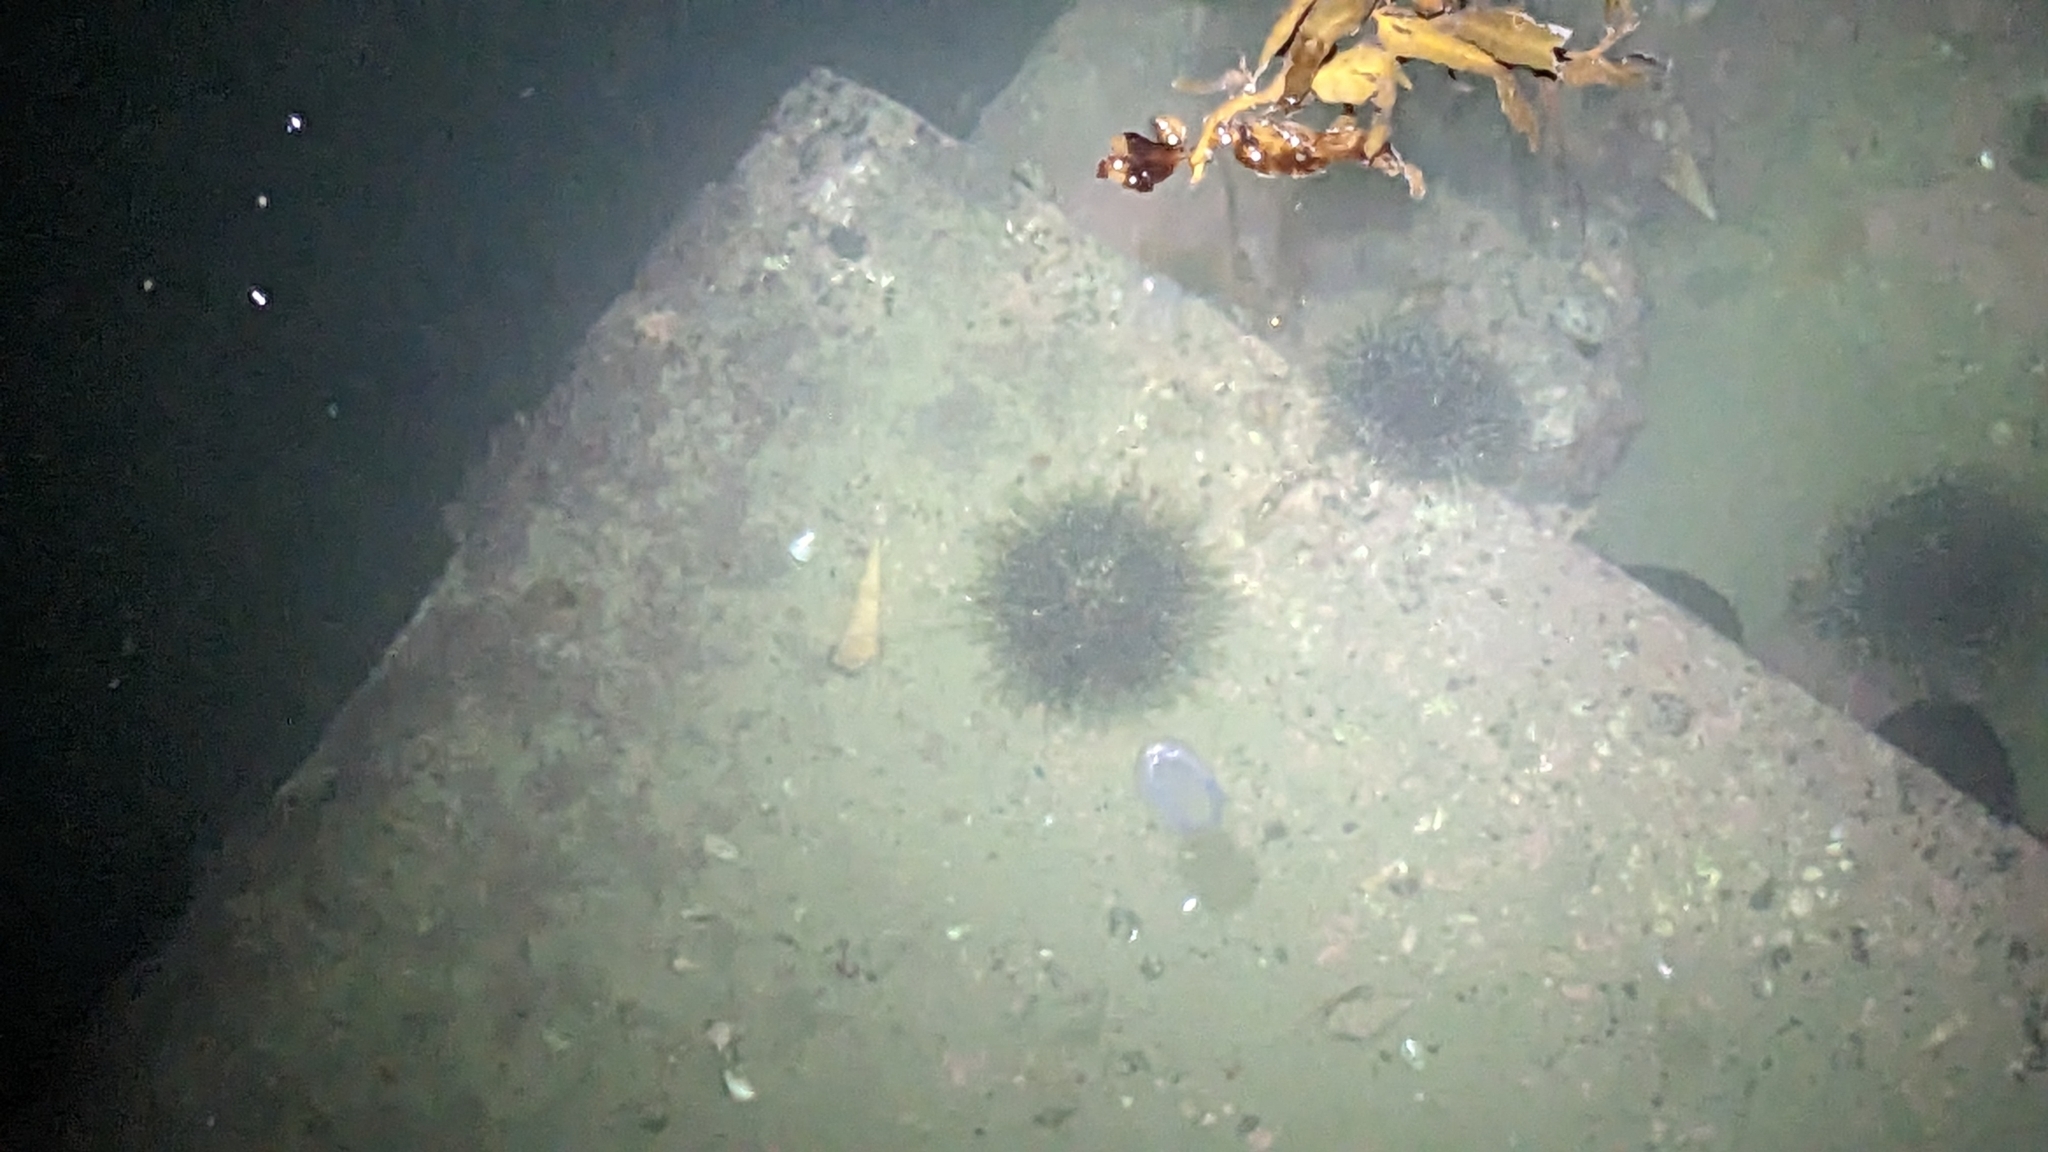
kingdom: Animalia
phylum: Echinodermata
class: Echinoidea
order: Camarodonta
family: Echinometridae
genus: Evechinus
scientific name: Evechinus chloroticus
